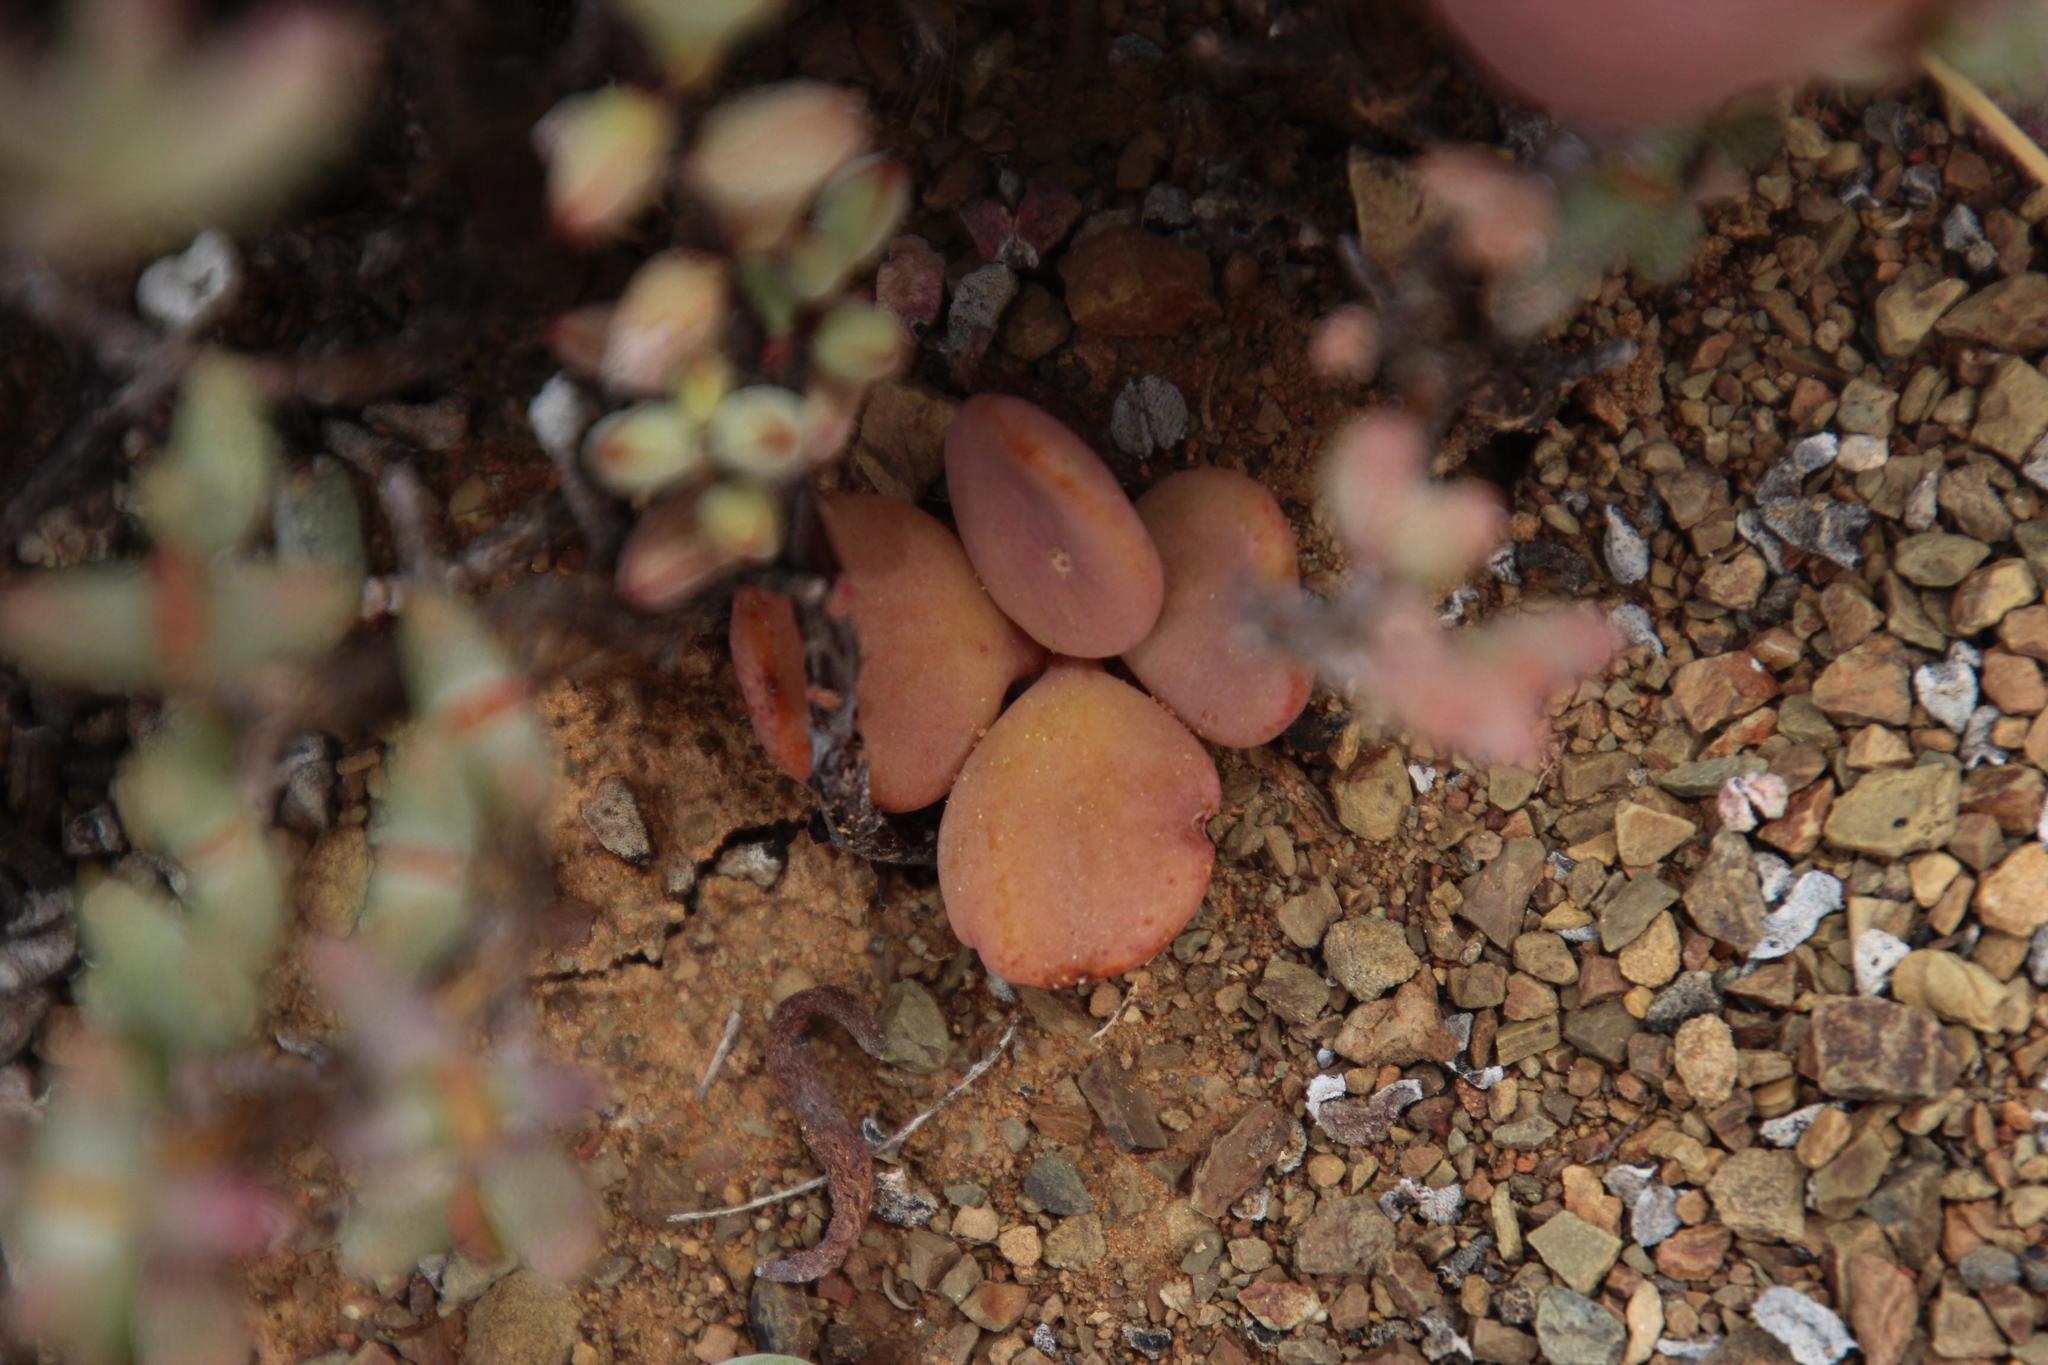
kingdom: Plantae
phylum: Tracheophyta
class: Magnoliopsida
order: Saxifragales
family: Crassulaceae
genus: Tylecodon
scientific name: Tylecodon reticulatus
